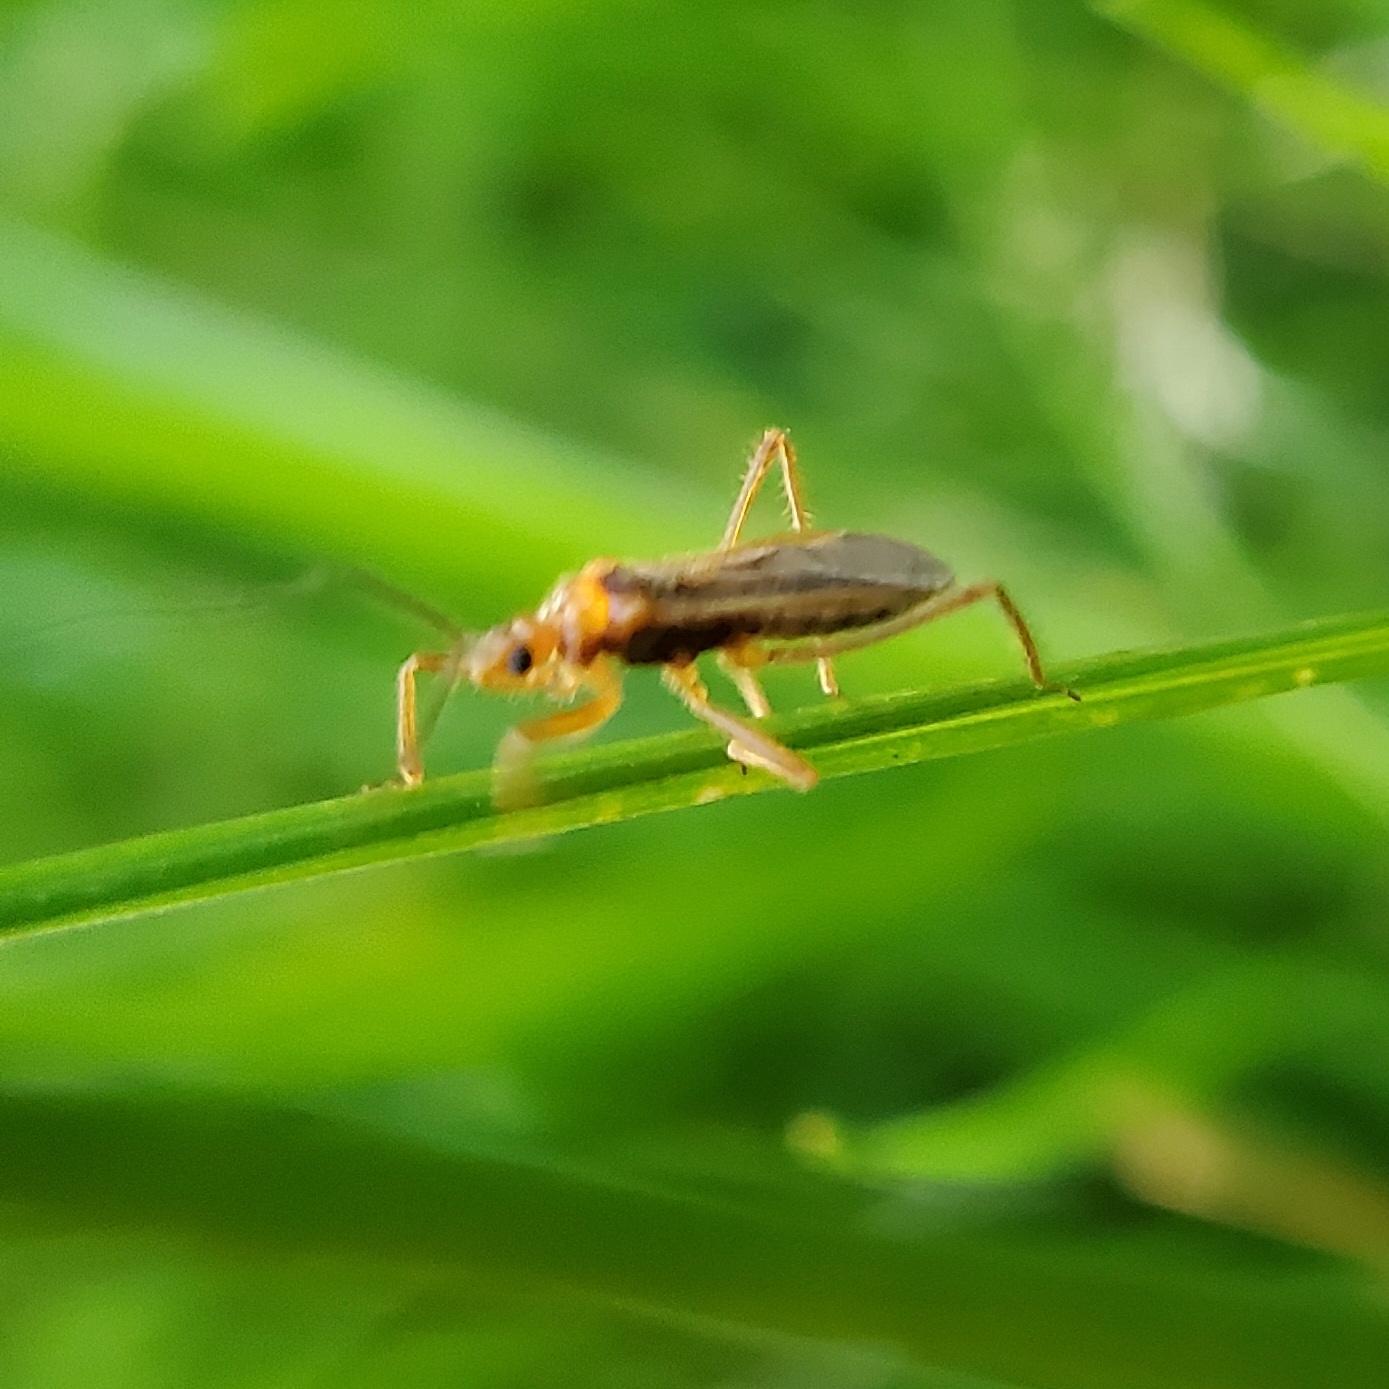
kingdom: Animalia
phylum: Arthropoda
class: Insecta
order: Hemiptera
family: Reduviidae
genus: Oncerotrachelus
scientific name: Oncerotrachelus acuminatus
